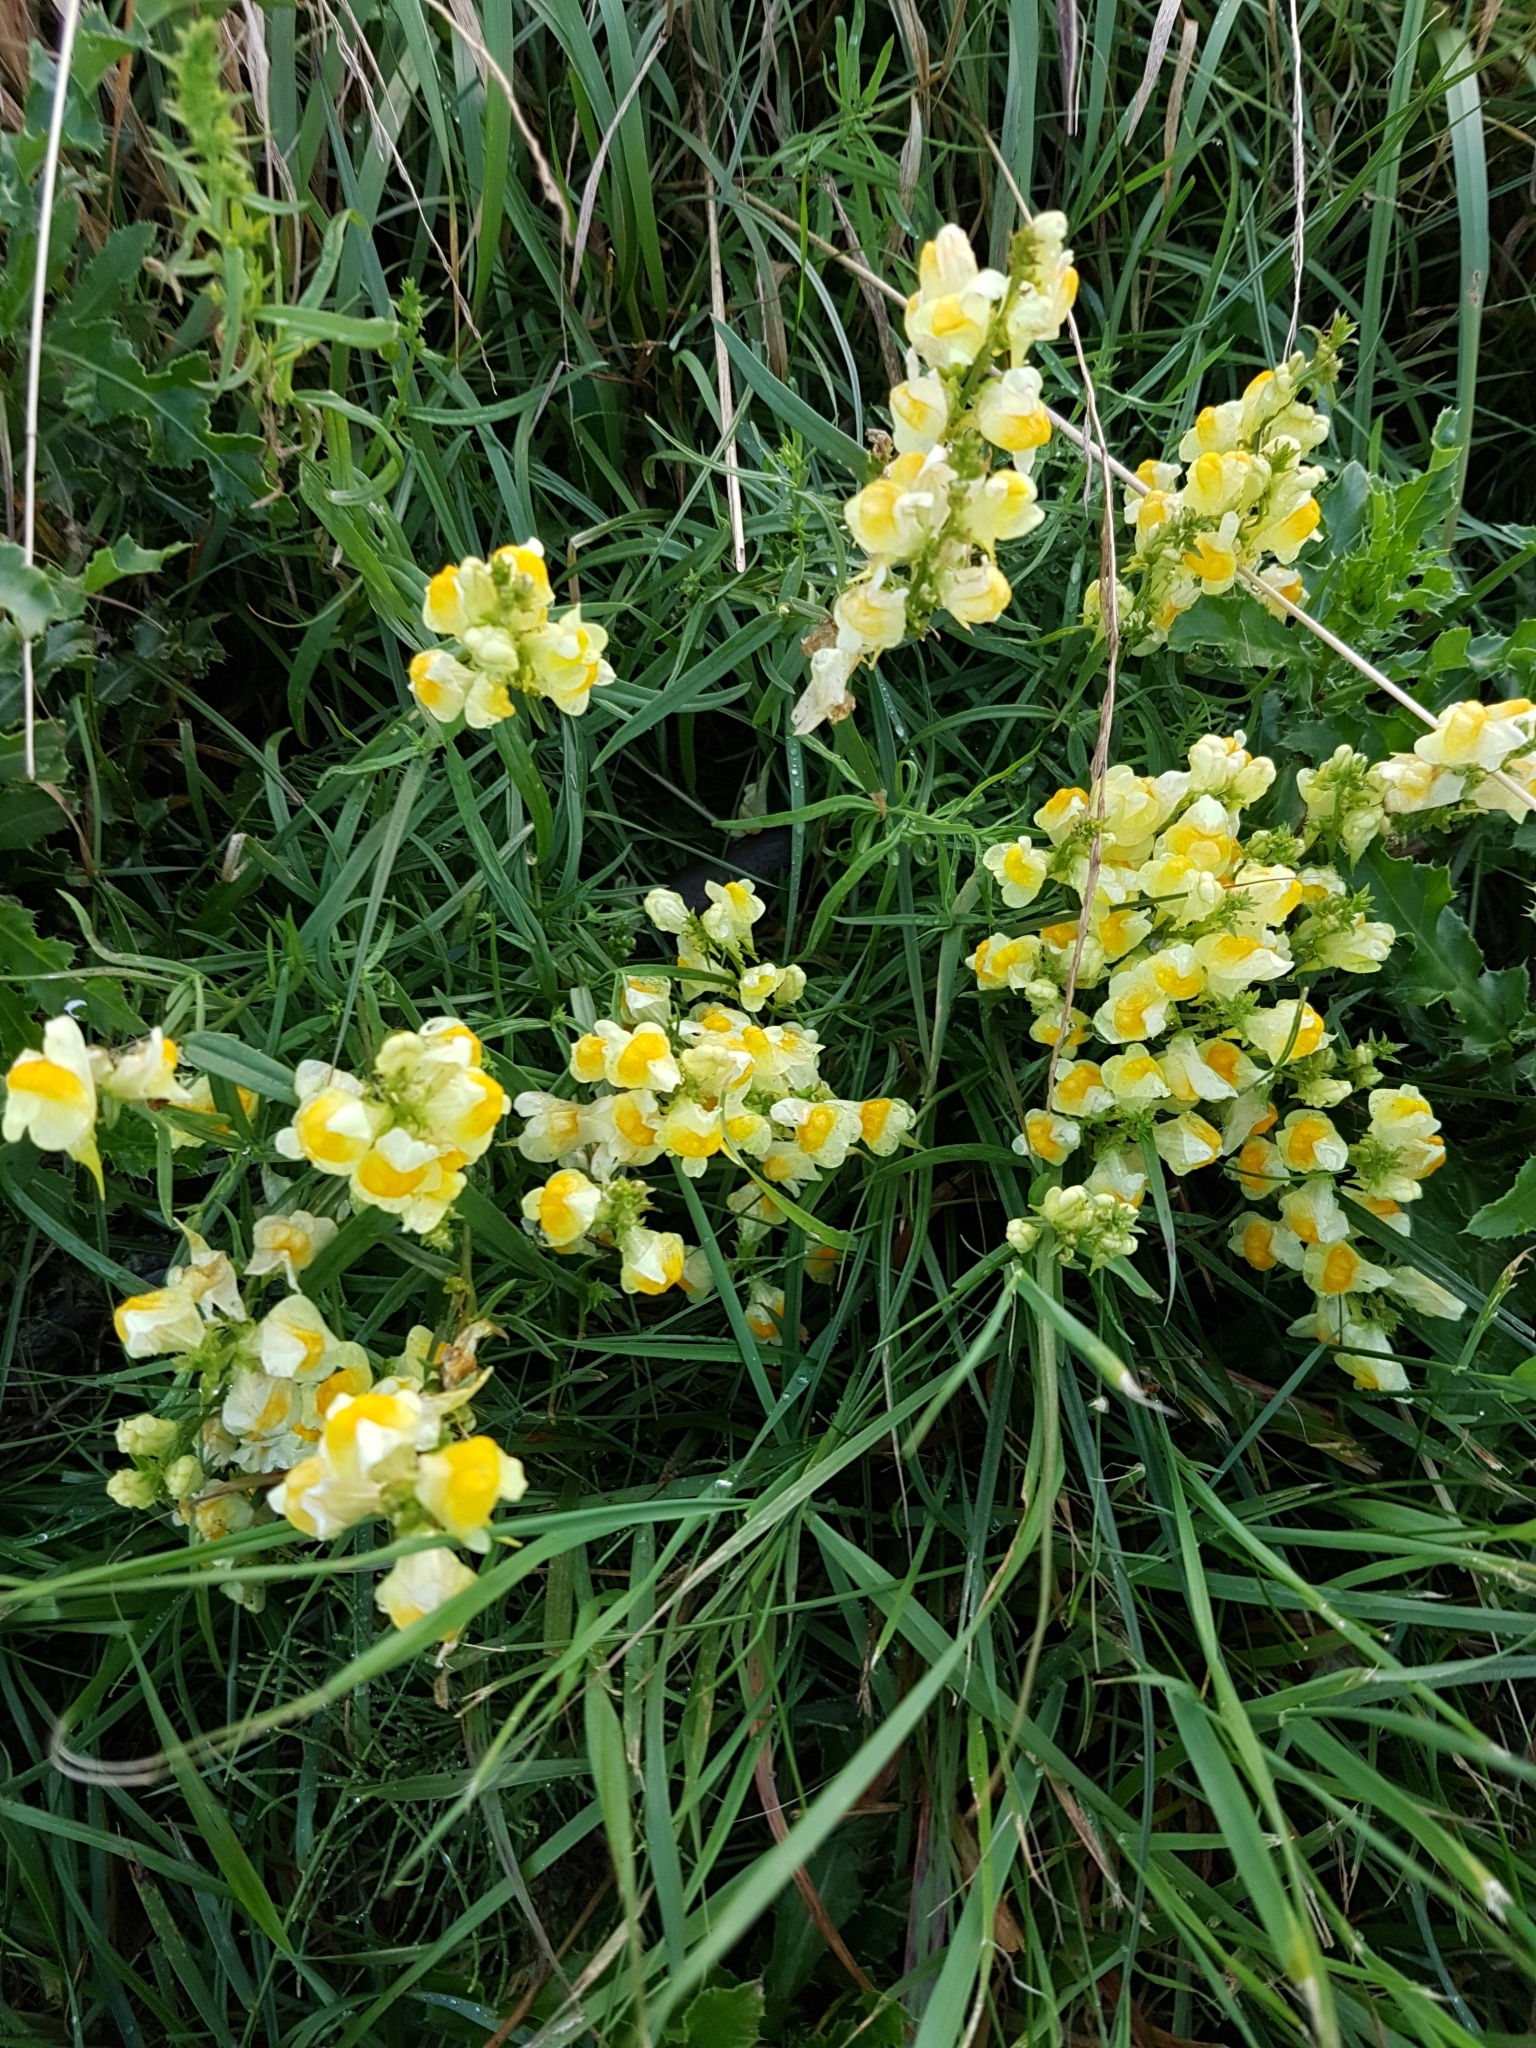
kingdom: Plantae
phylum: Tracheophyta
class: Magnoliopsida
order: Lamiales
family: Plantaginaceae
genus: Linaria
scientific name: Linaria vulgaris
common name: Butter and eggs
